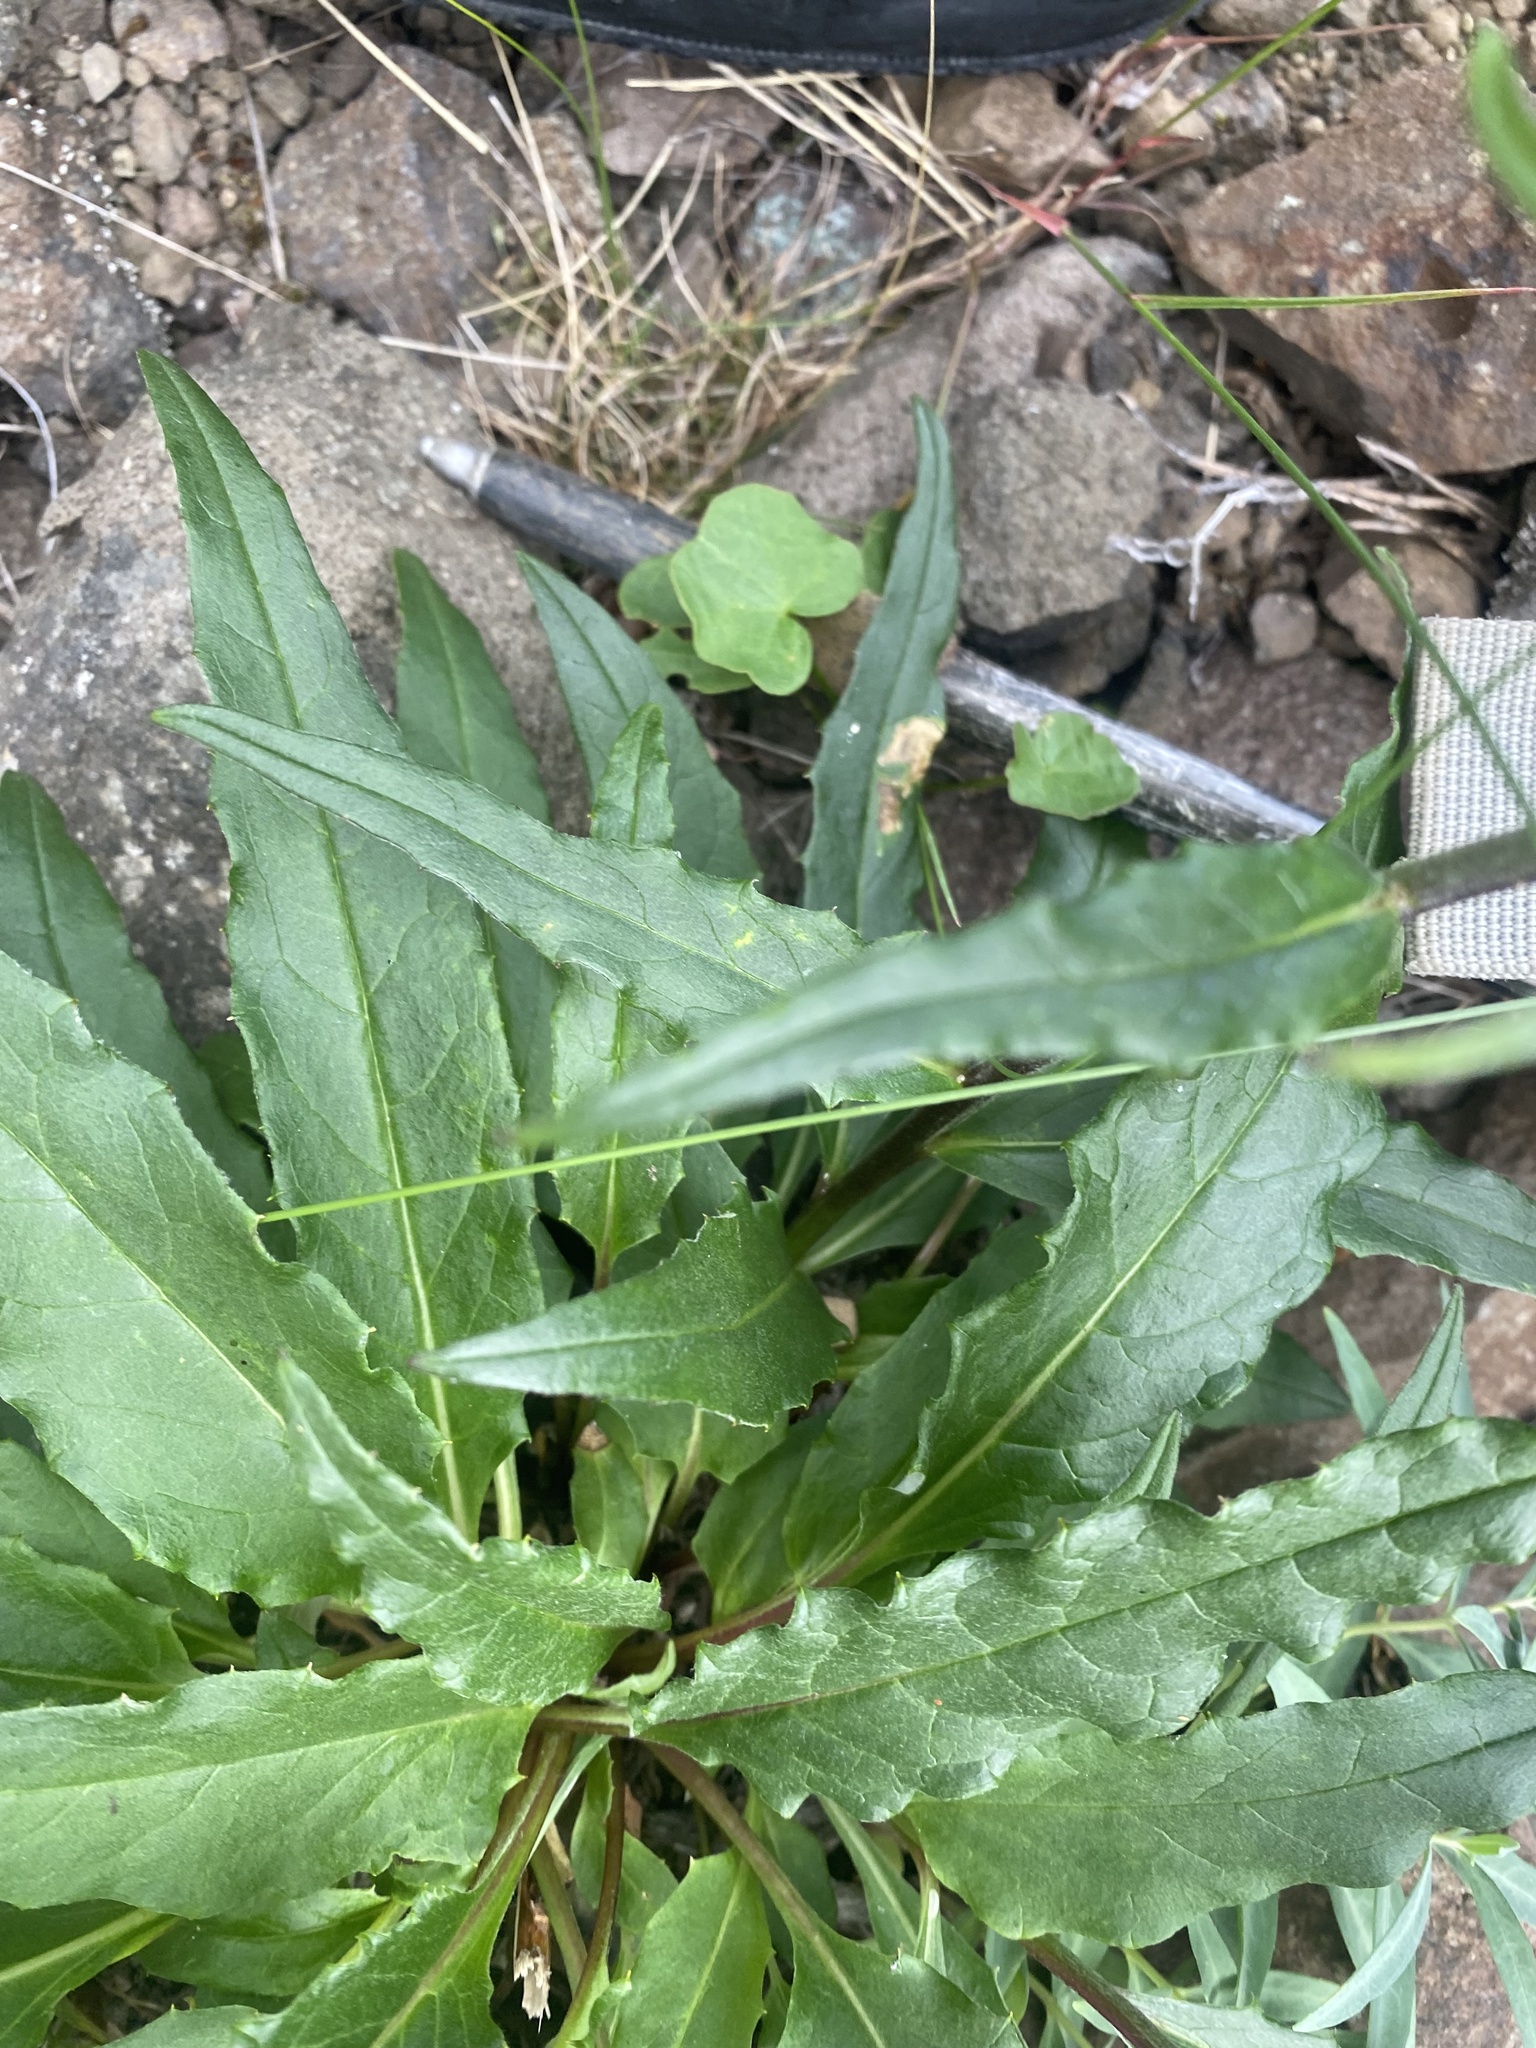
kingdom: Plantae
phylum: Tracheophyta
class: Magnoliopsida
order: Asterales
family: Asteraceae
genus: Saussurea
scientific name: Saussurea tilesii
